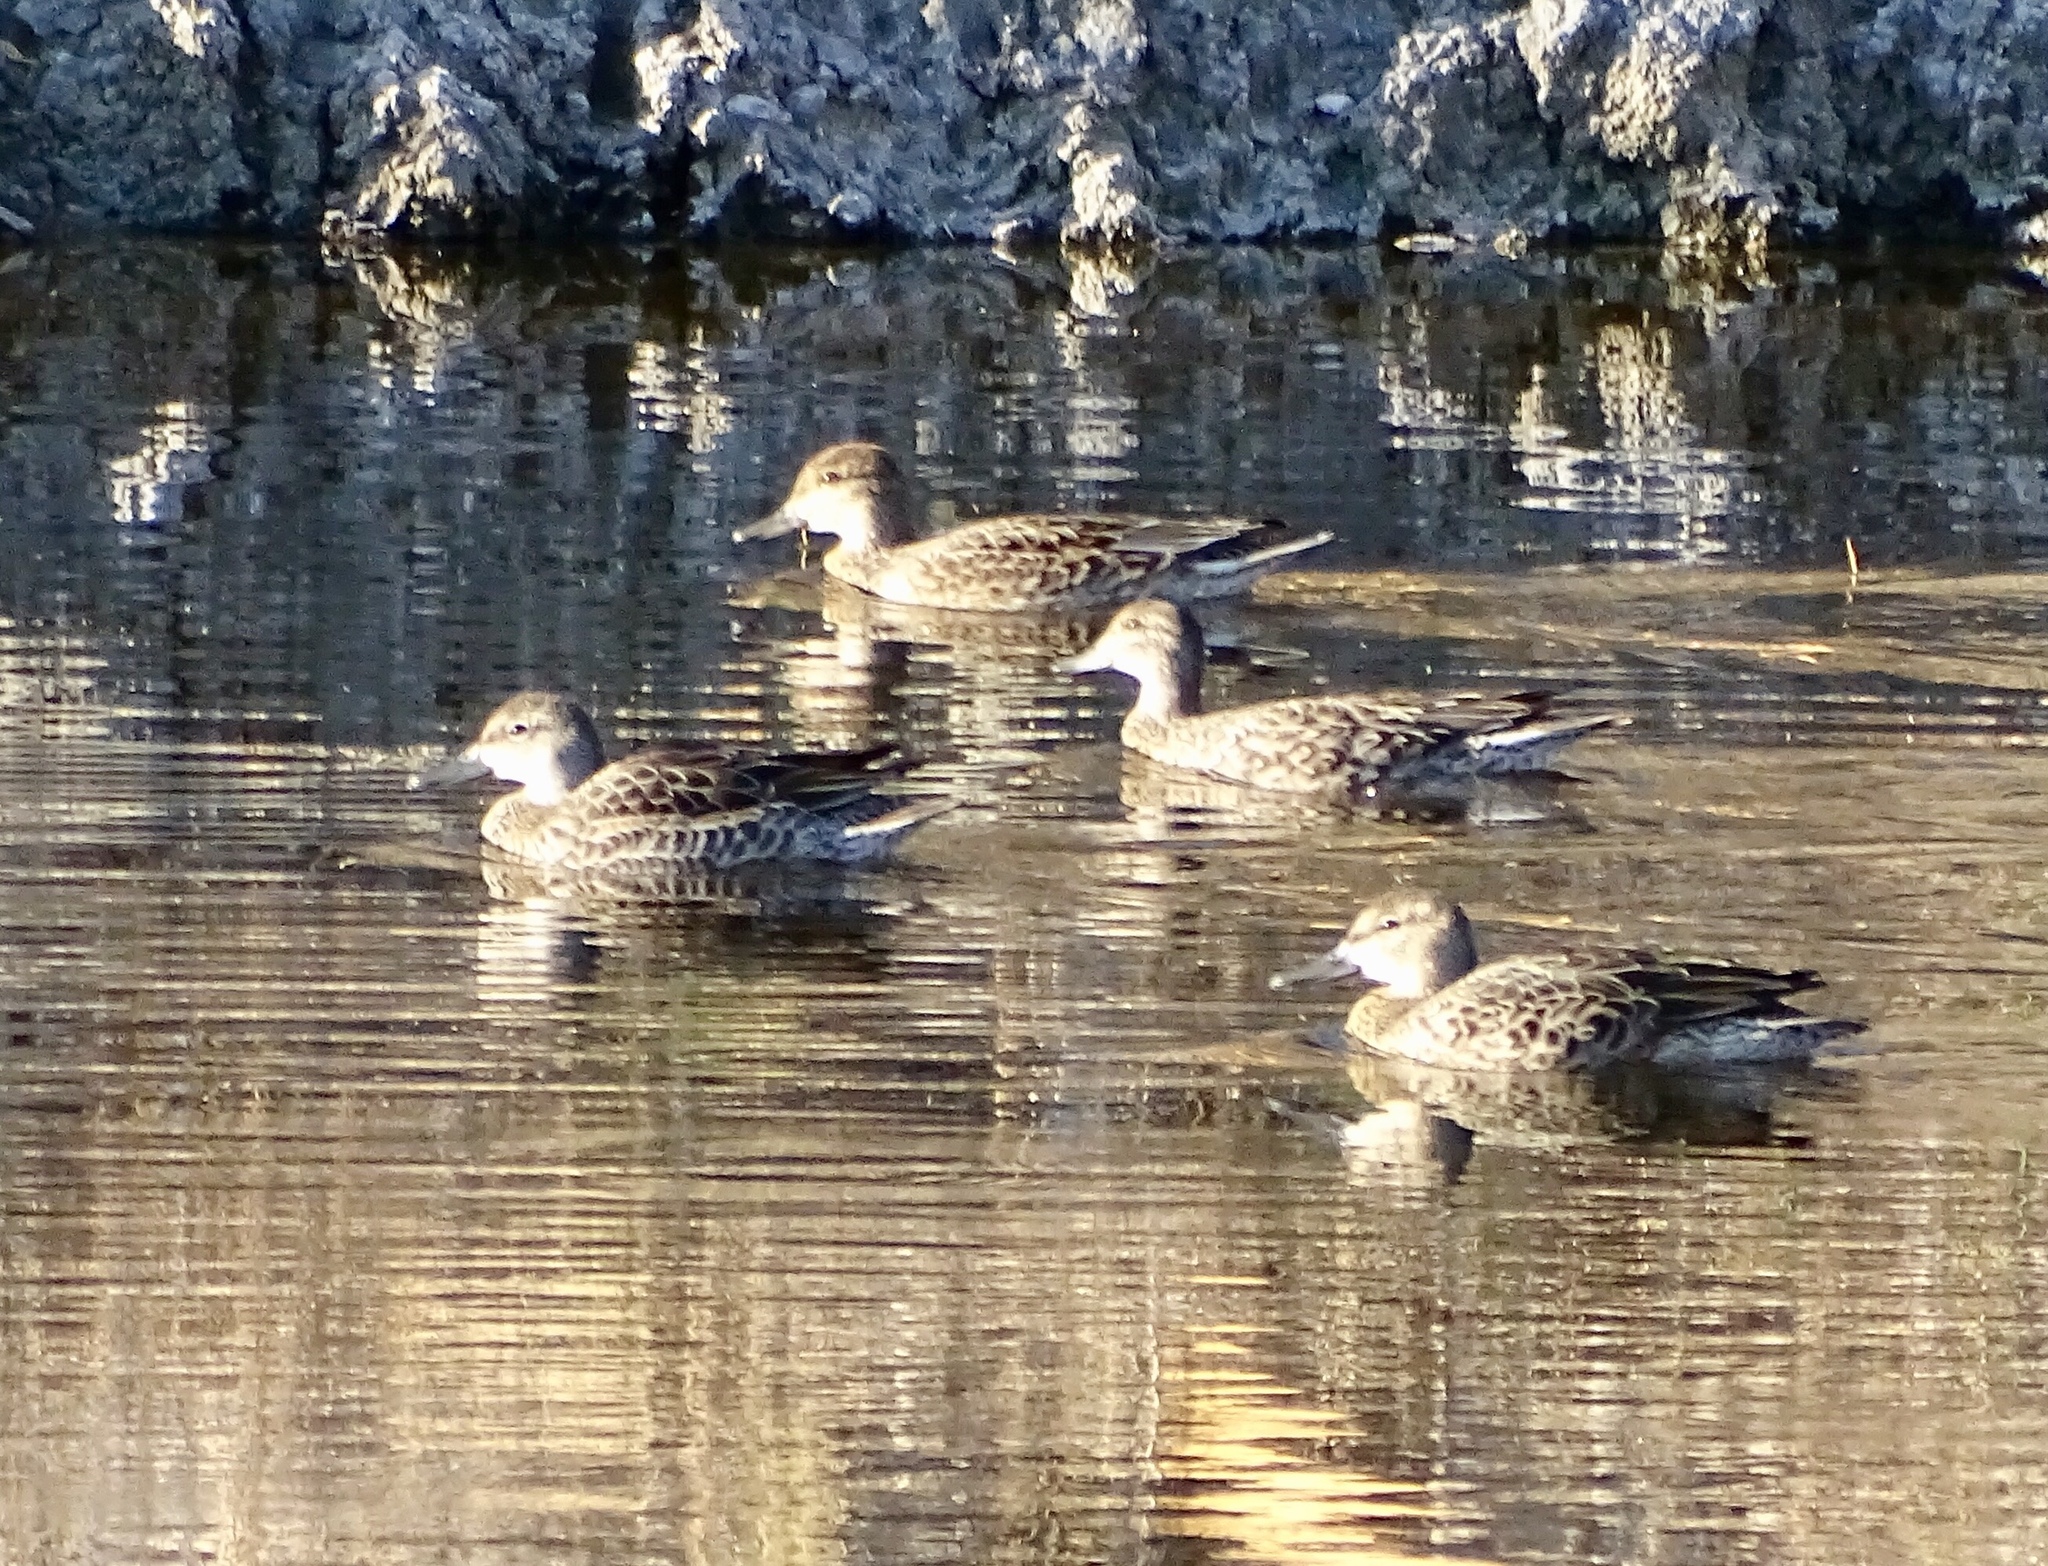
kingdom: Animalia
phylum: Chordata
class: Aves
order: Anseriformes
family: Anatidae
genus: Anas
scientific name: Anas crecca
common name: Eurasian teal
